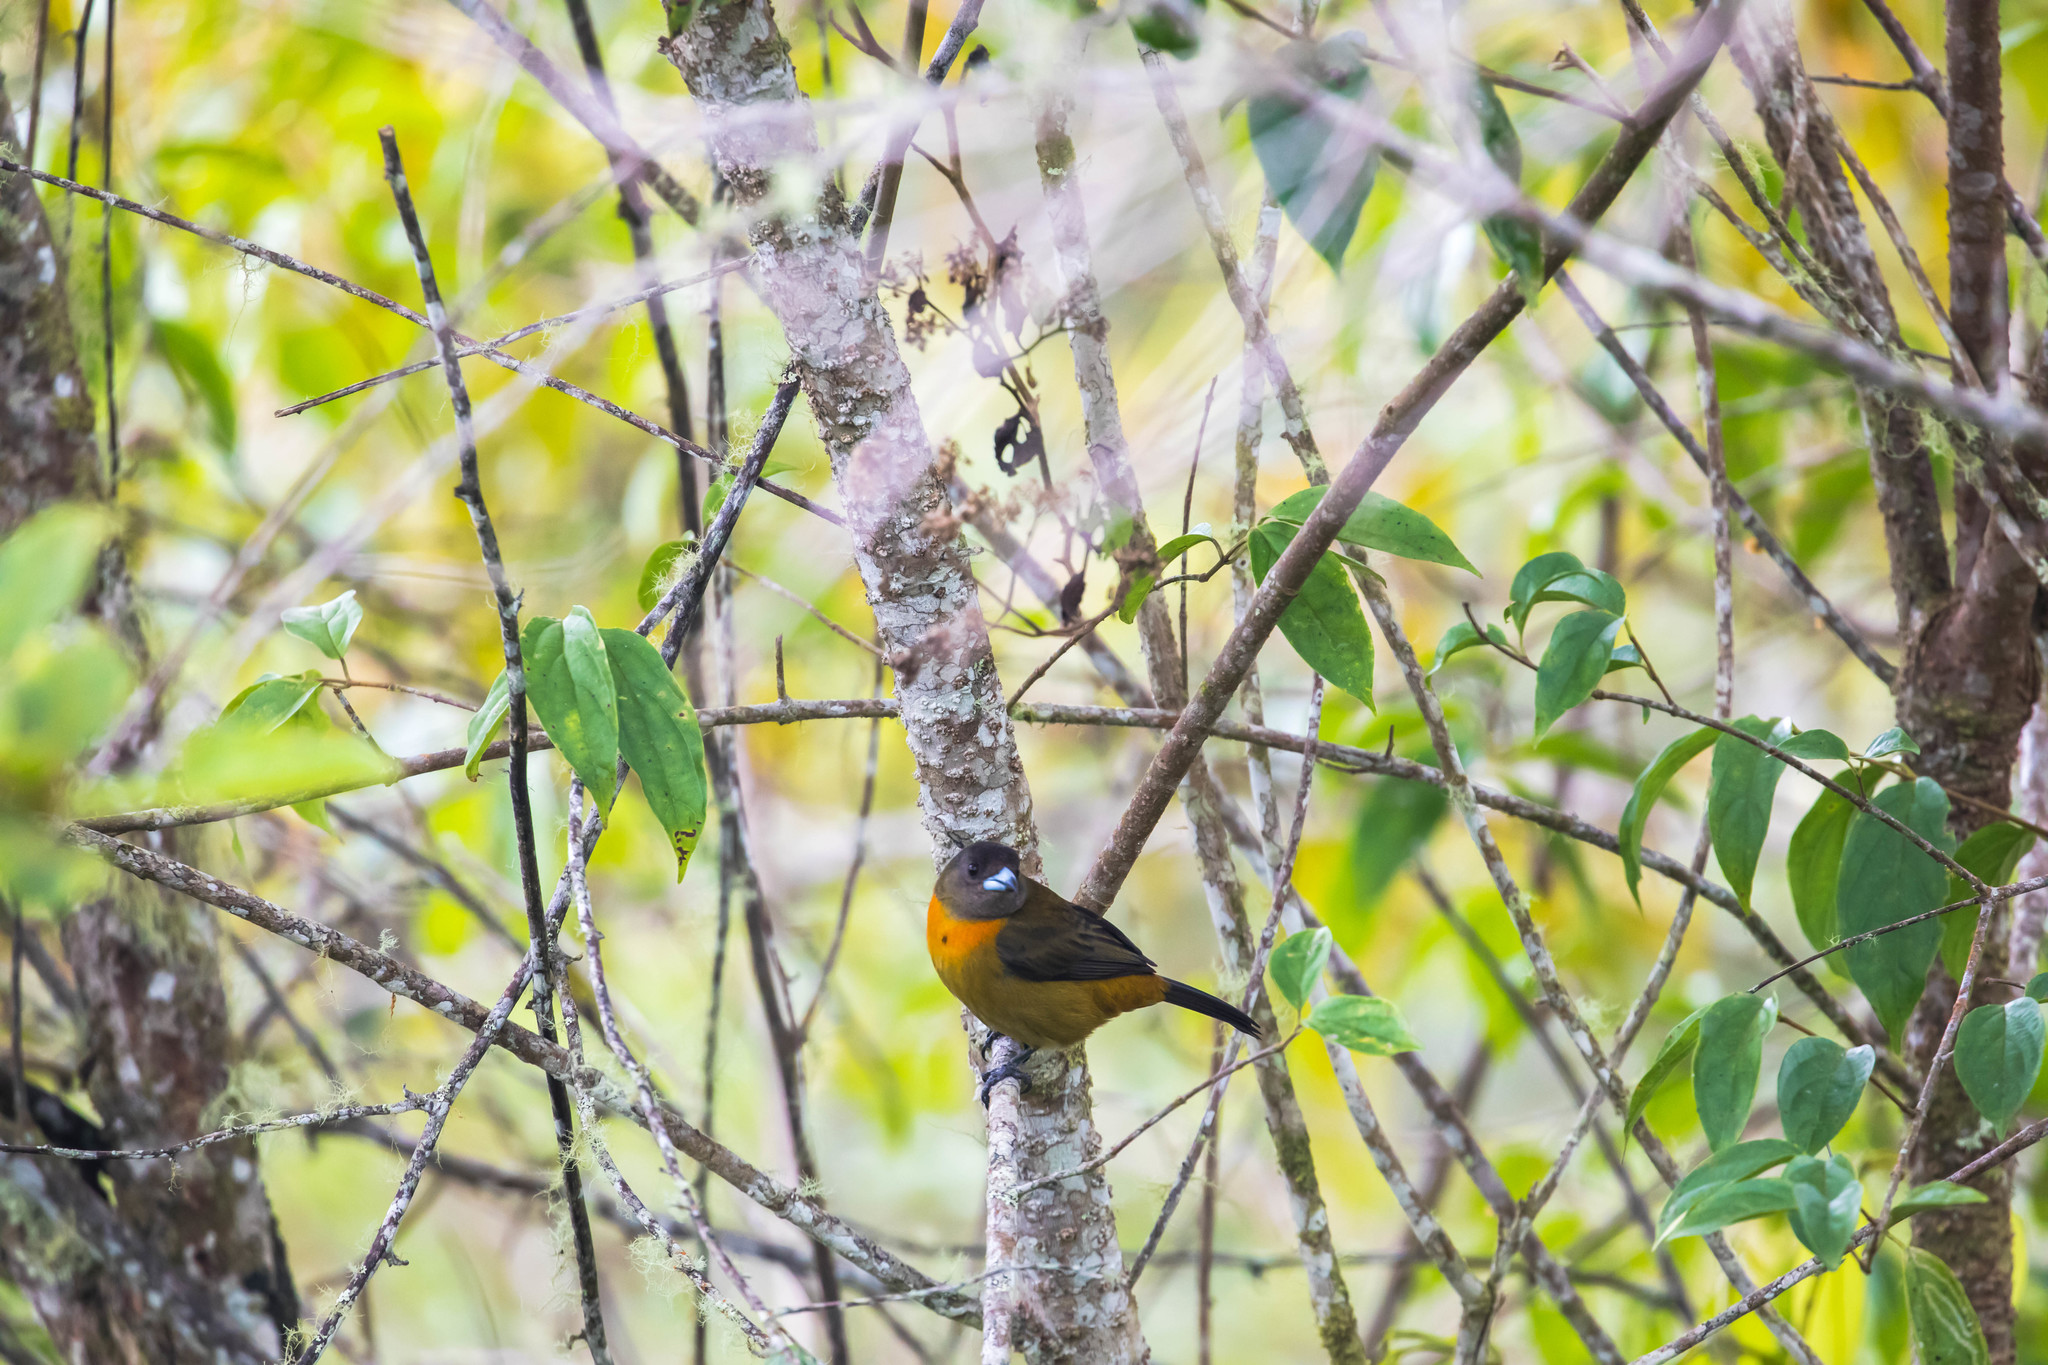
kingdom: Animalia
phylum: Chordata
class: Aves
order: Passeriformes
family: Thraupidae
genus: Ramphocelus
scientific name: Ramphocelus passerinii
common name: Passerini's tanager
